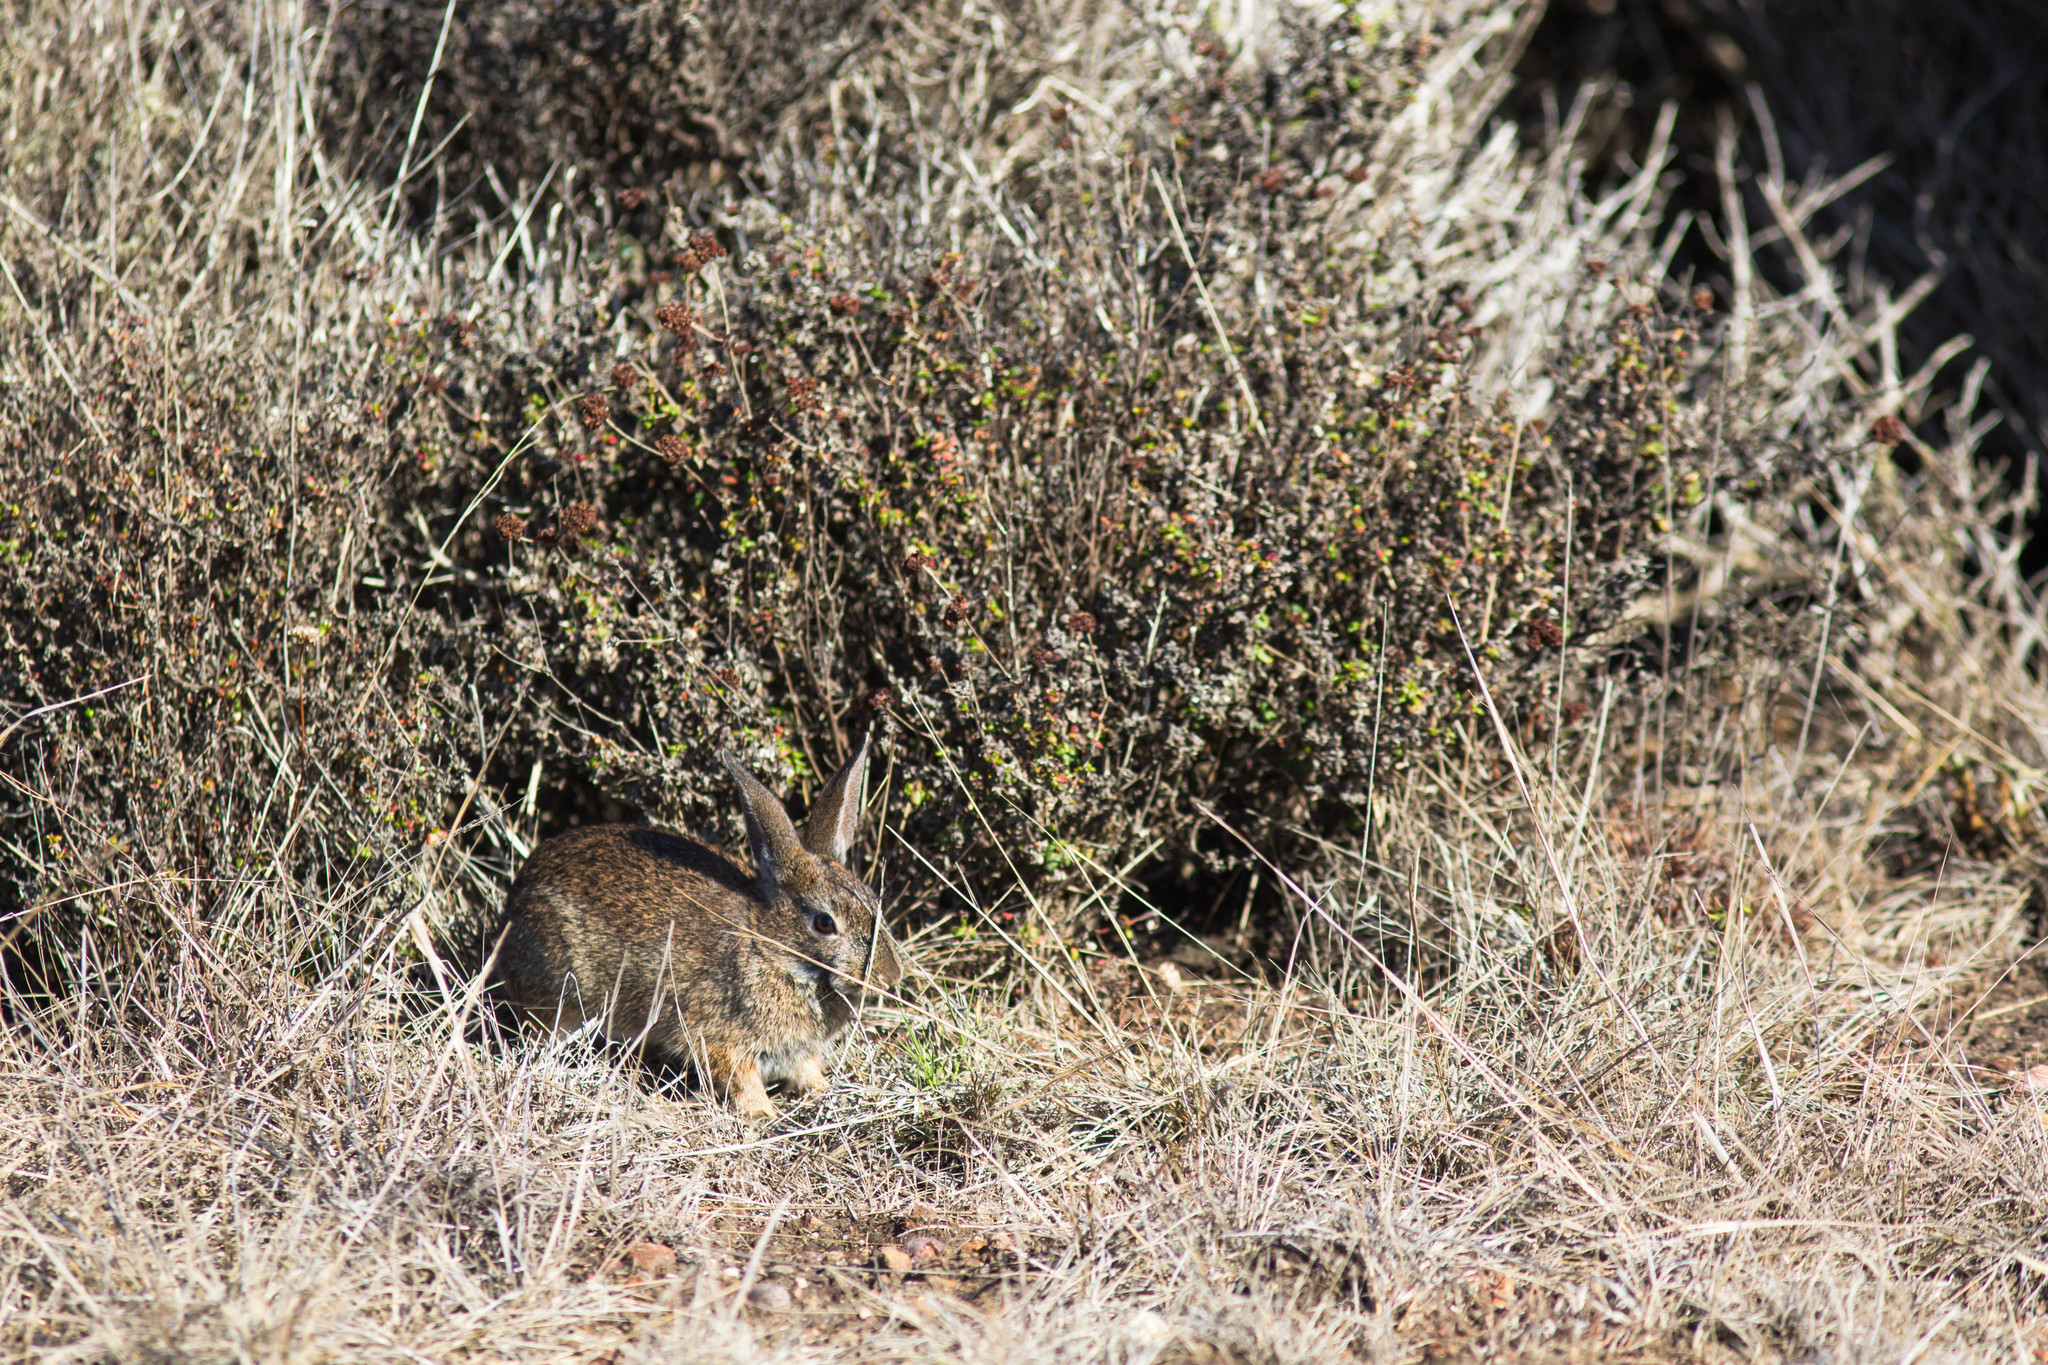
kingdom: Animalia
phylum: Chordata
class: Mammalia
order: Lagomorpha
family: Leporidae
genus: Sylvilagus
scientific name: Sylvilagus bachmani
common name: Brush rabbit
